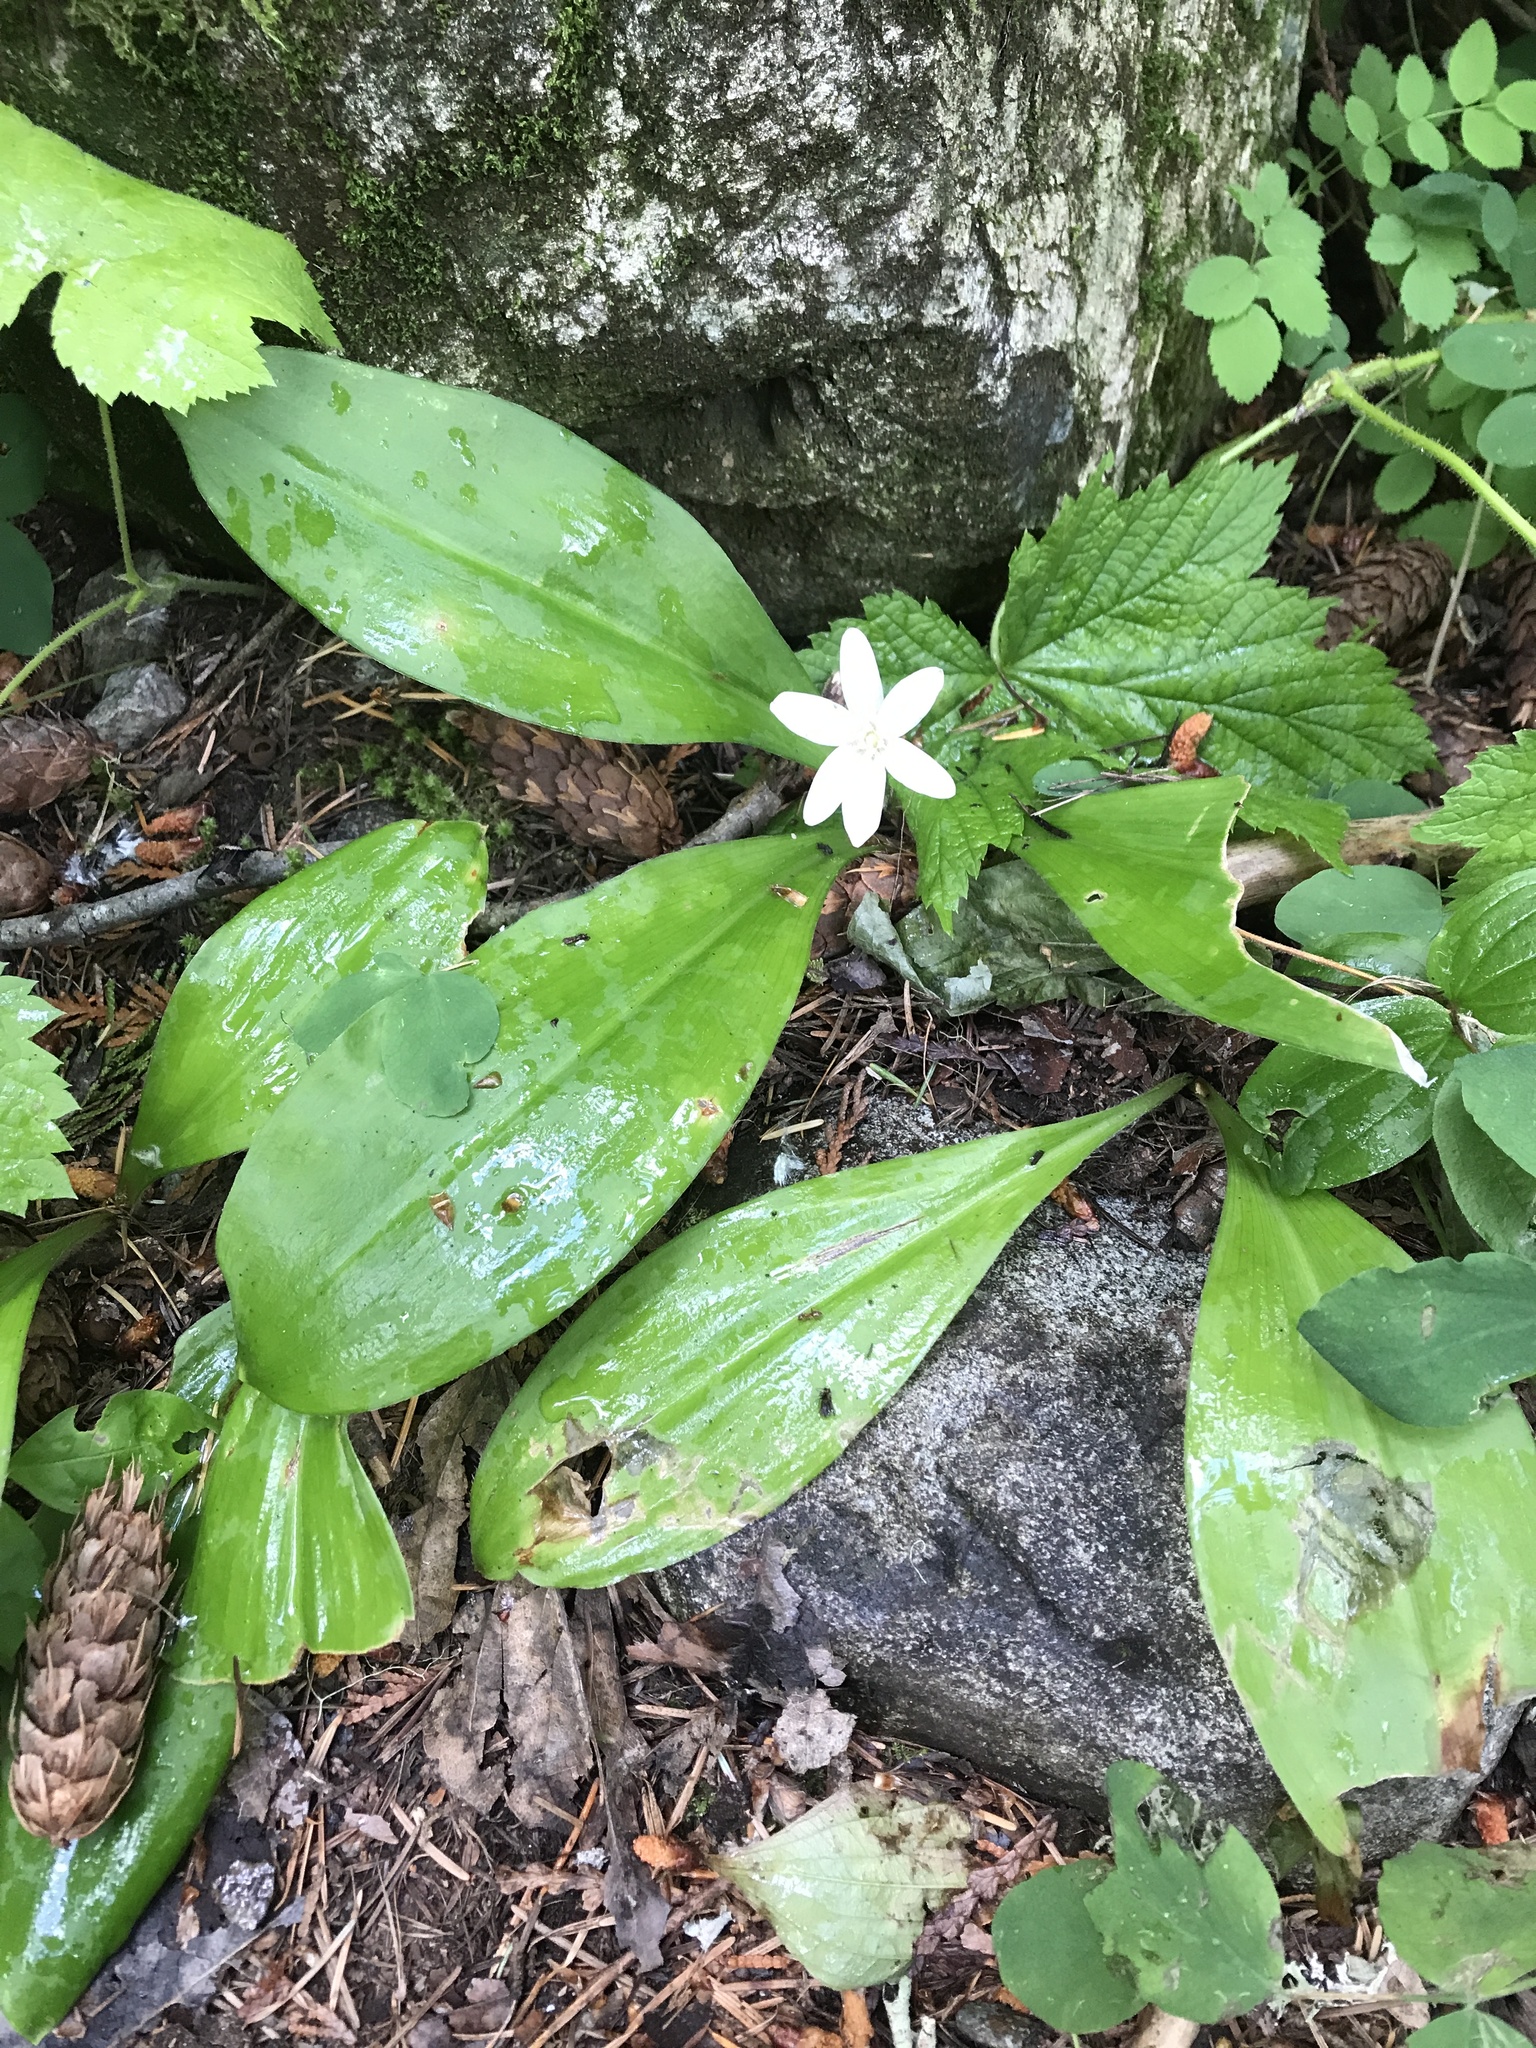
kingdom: Plantae
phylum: Tracheophyta
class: Liliopsida
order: Liliales
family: Liliaceae
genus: Clintonia
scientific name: Clintonia uniflora
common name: Queen's cup
